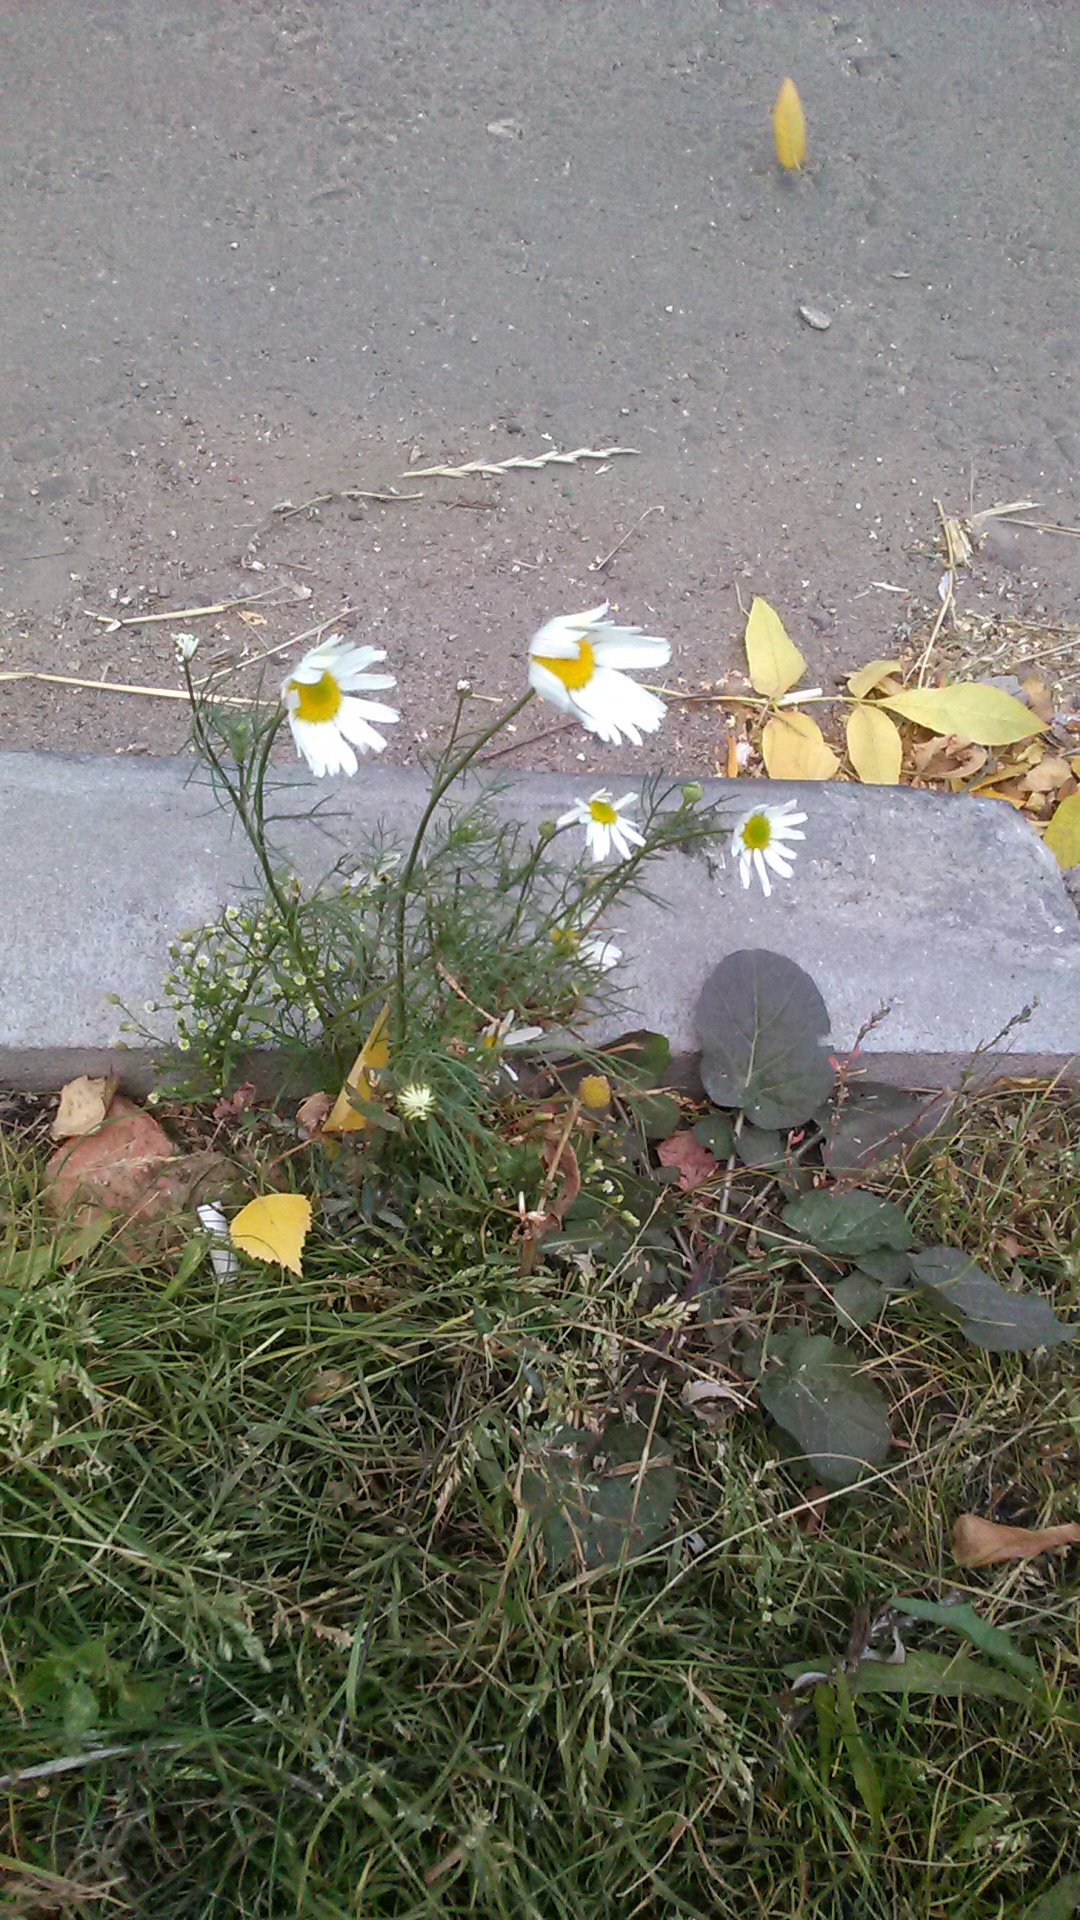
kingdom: Plantae
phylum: Tracheophyta
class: Magnoliopsida
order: Asterales
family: Asteraceae
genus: Tripleurospermum
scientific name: Tripleurospermum inodorum
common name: Scentless mayweed
